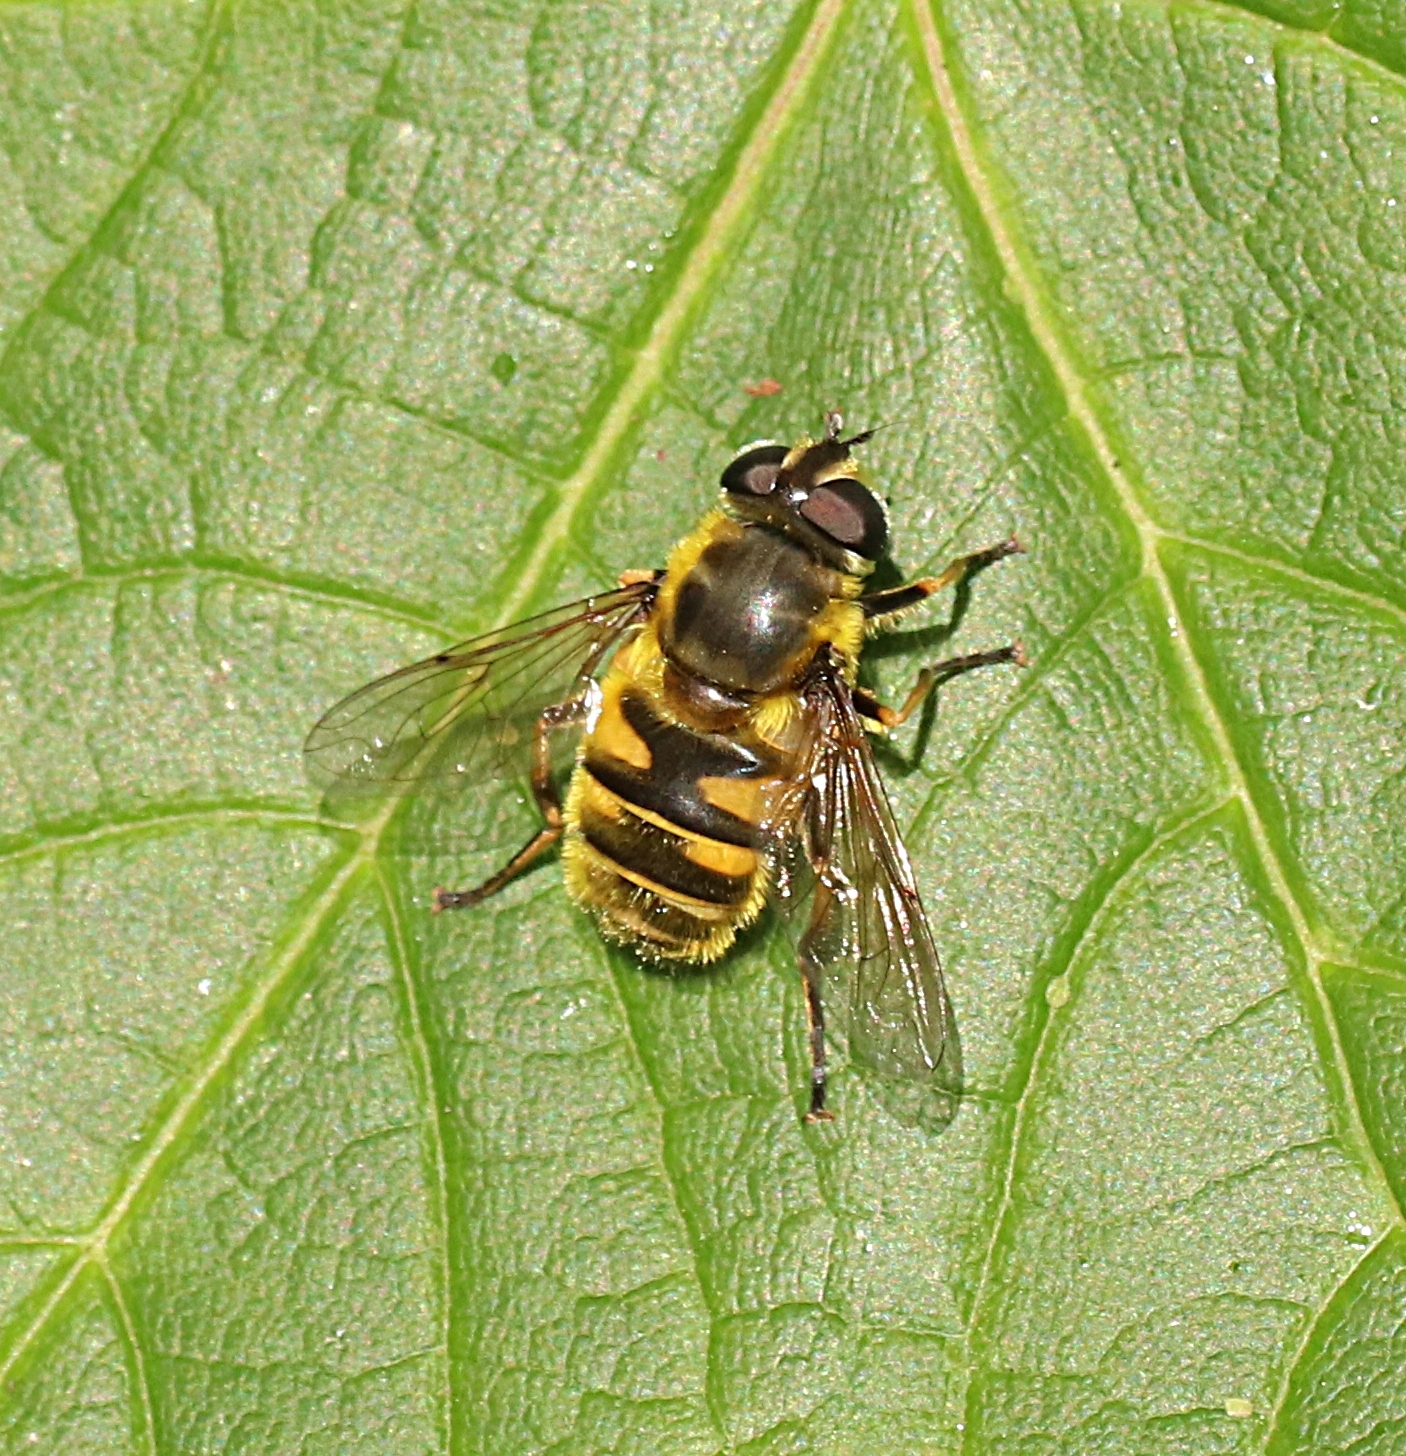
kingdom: Animalia
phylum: Arthropoda
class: Insecta
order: Diptera
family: Syrphidae
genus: Myathropa
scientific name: Myathropa florea
